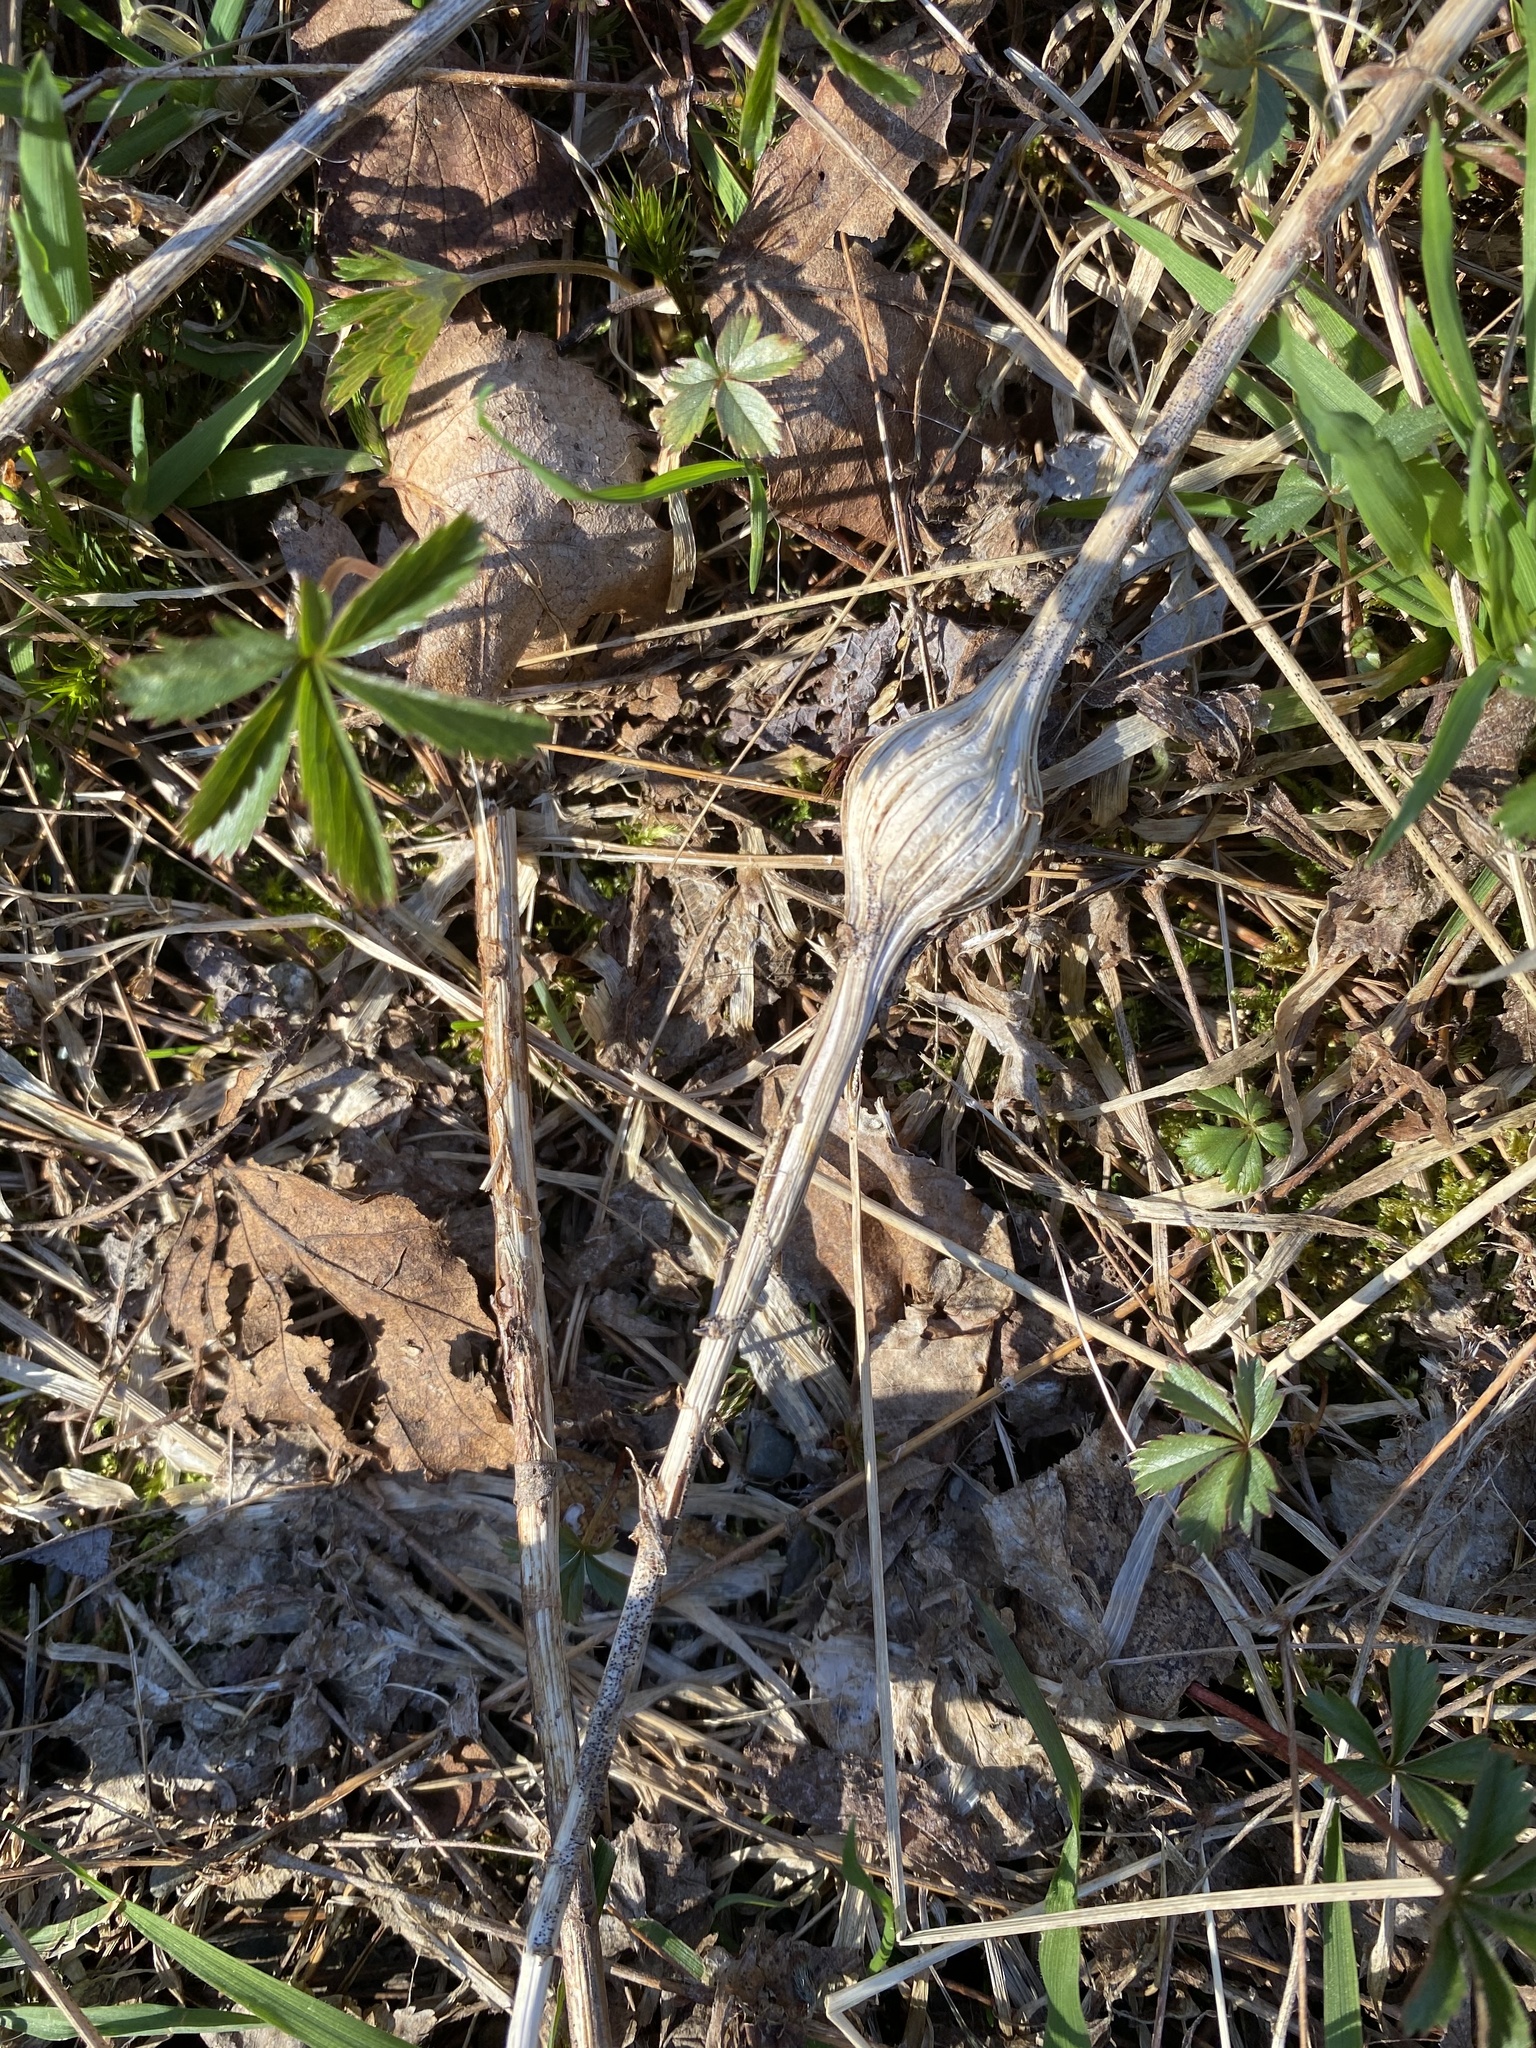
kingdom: Animalia
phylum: Arthropoda
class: Insecta
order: Diptera
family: Tephritidae
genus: Eurosta
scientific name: Eurosta solidaginis
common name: Goldenrod gall fly
